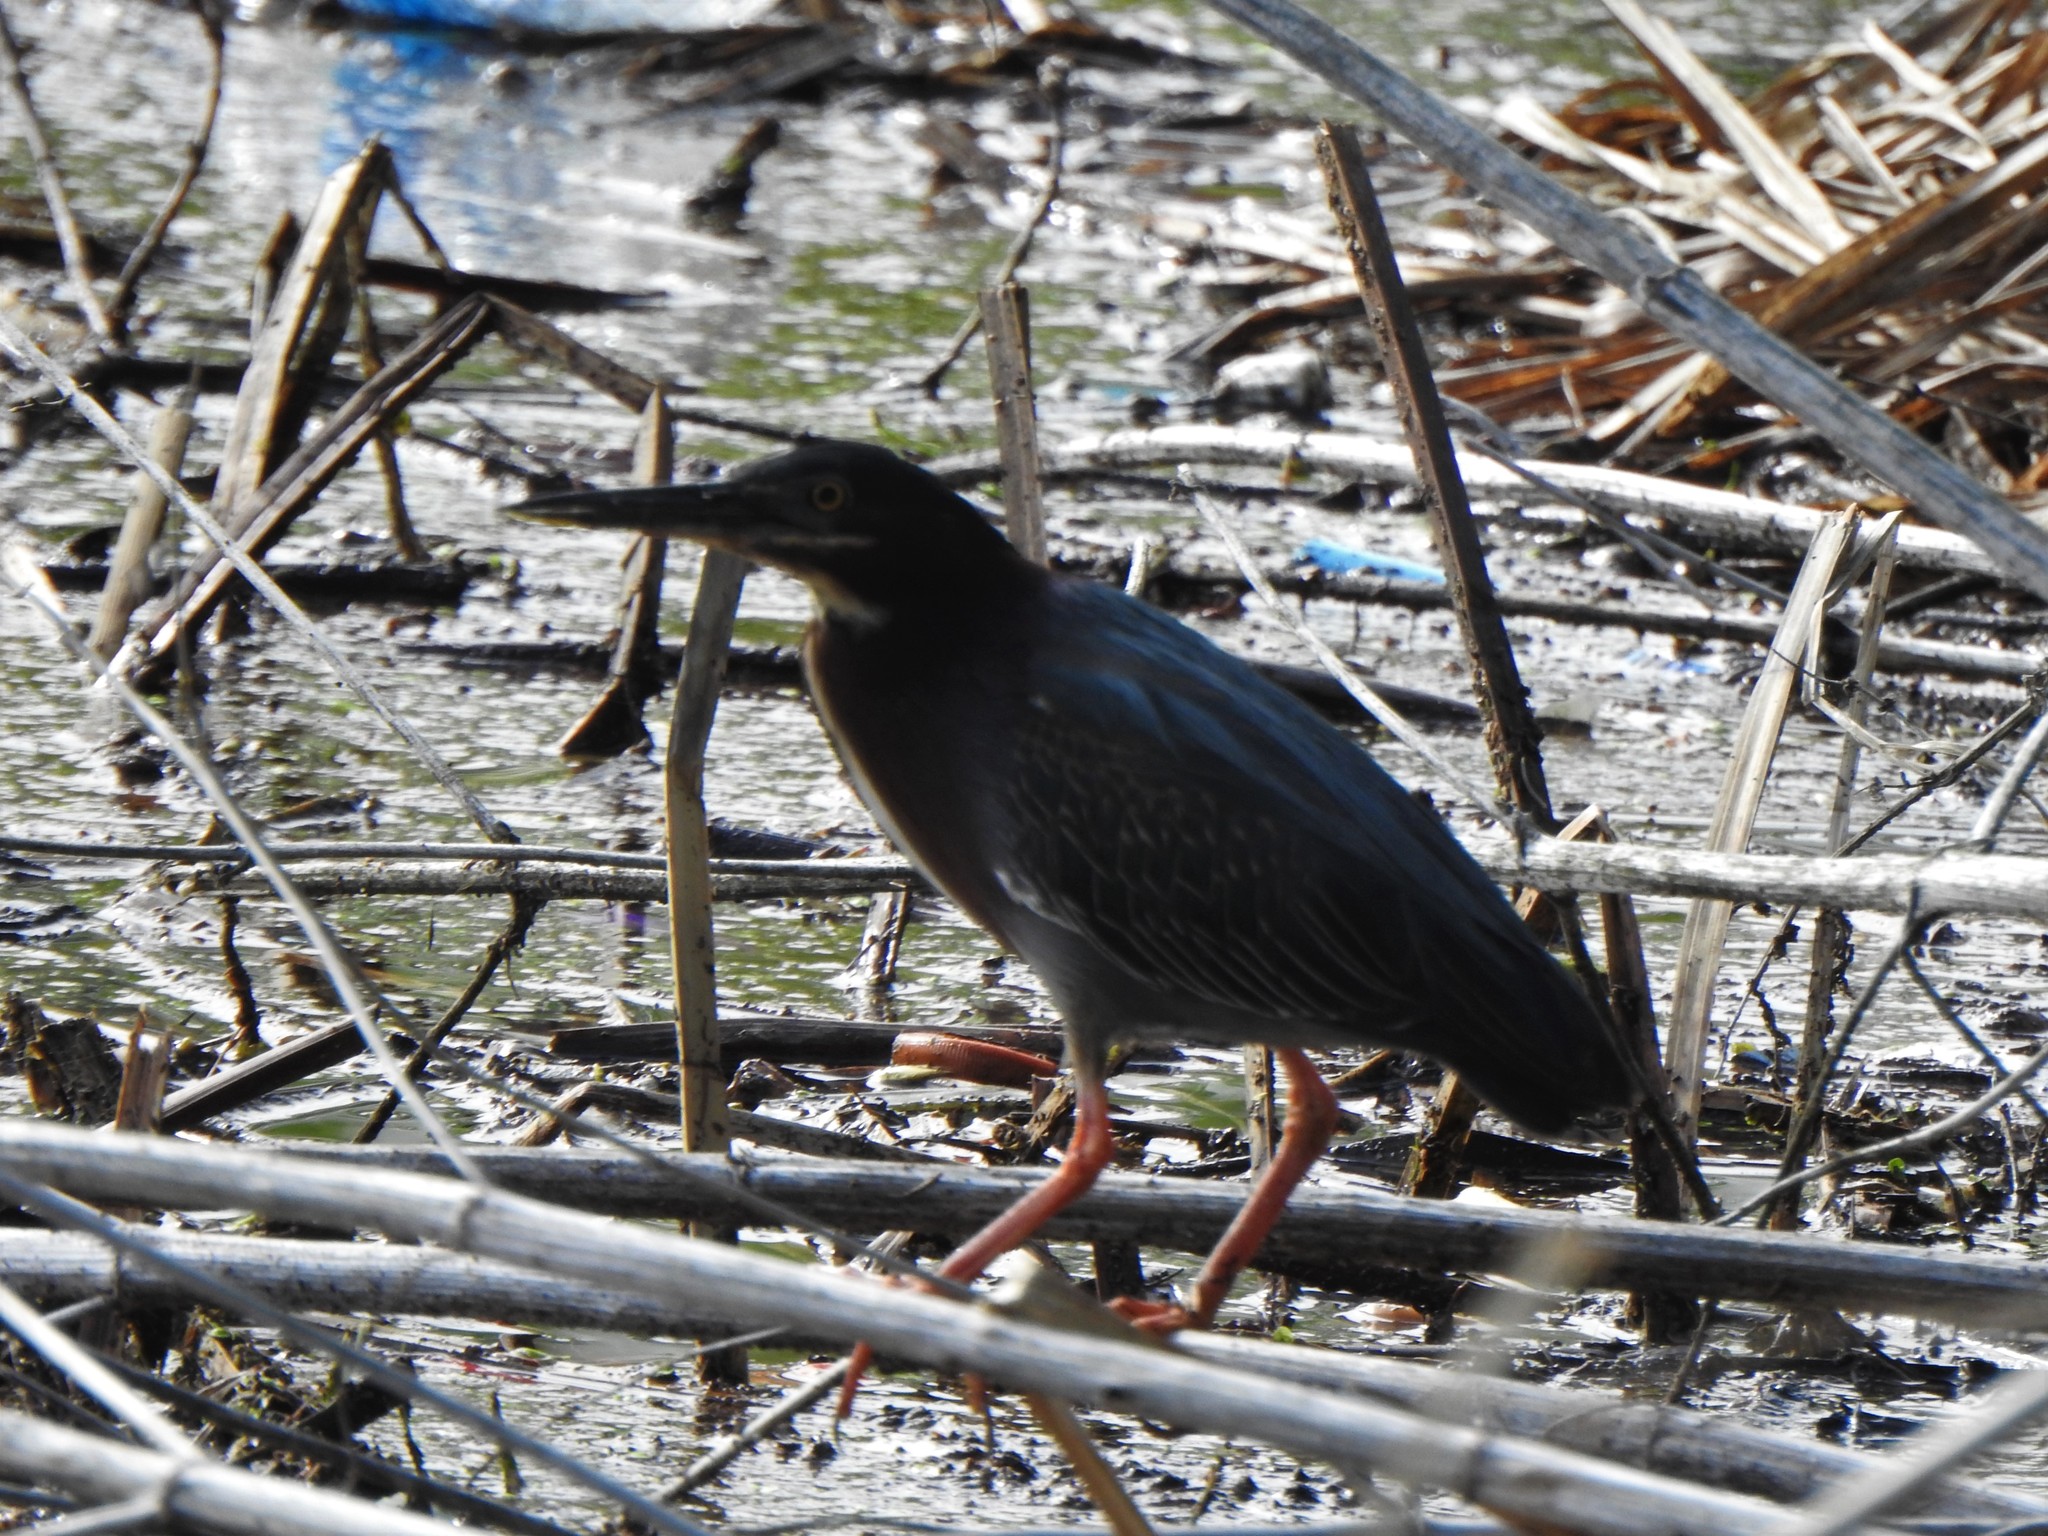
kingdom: Animalia
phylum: Chordata
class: Aves
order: Pelecaniformes
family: Ardeidae
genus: Butorides
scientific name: Butorides virescens
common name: Green heron
